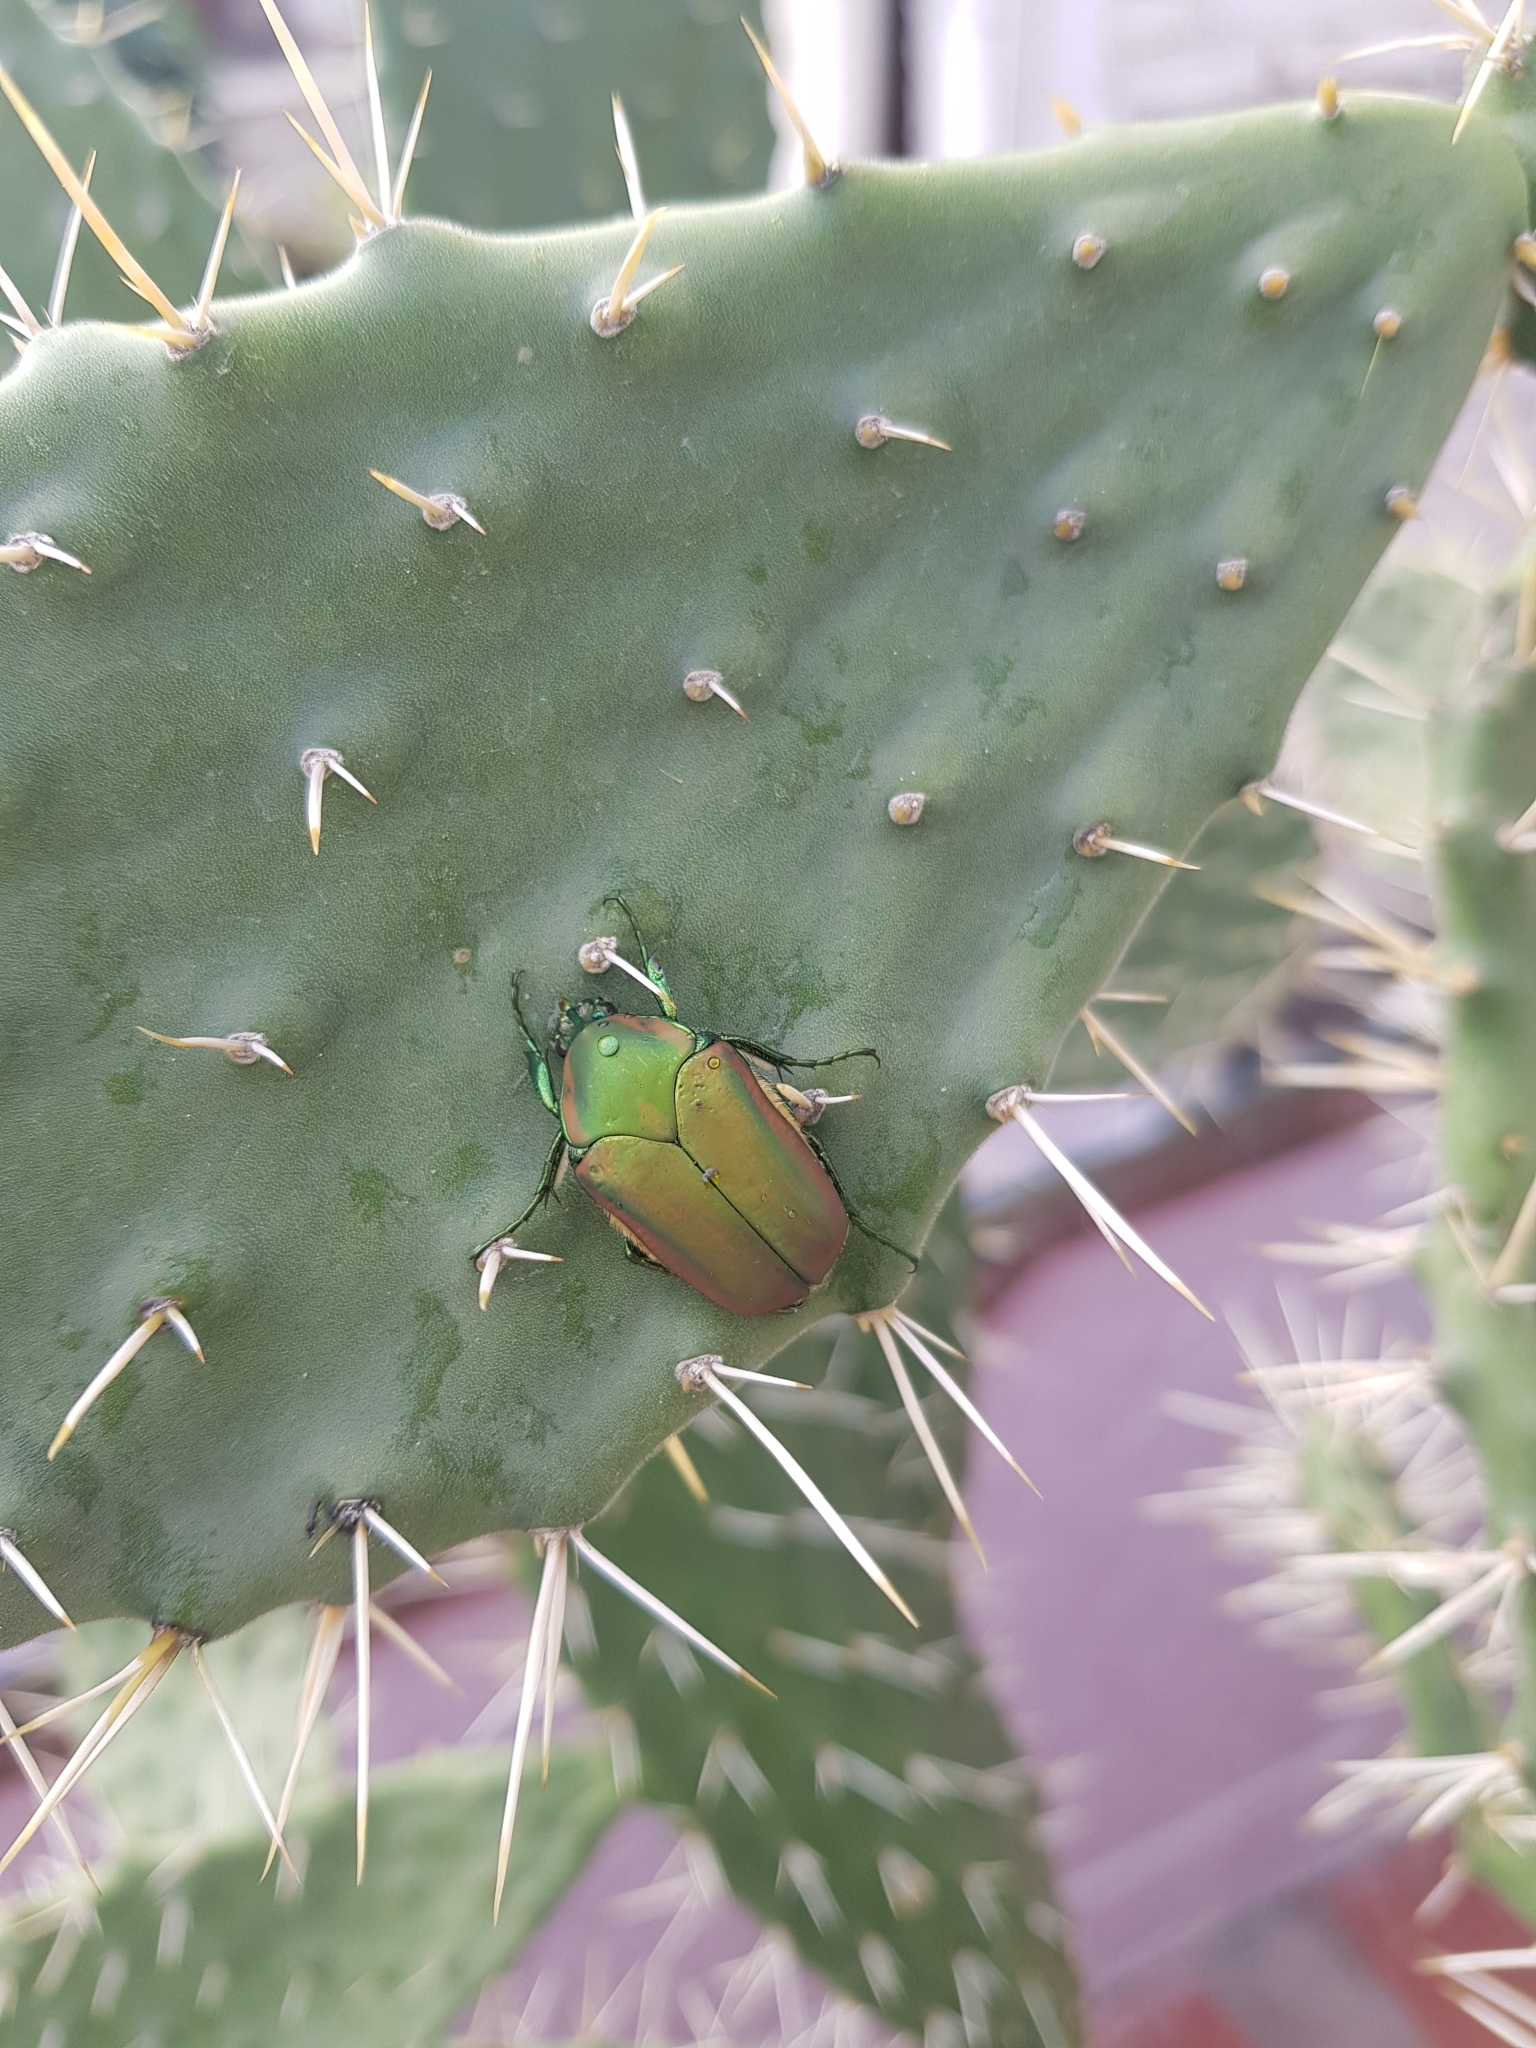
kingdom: Animalia
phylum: Arthropoda
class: Insecta
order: Coleoptera
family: Scarabaeidae
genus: Cotinis
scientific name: Cotinis mutabilis
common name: Figeater beetle
